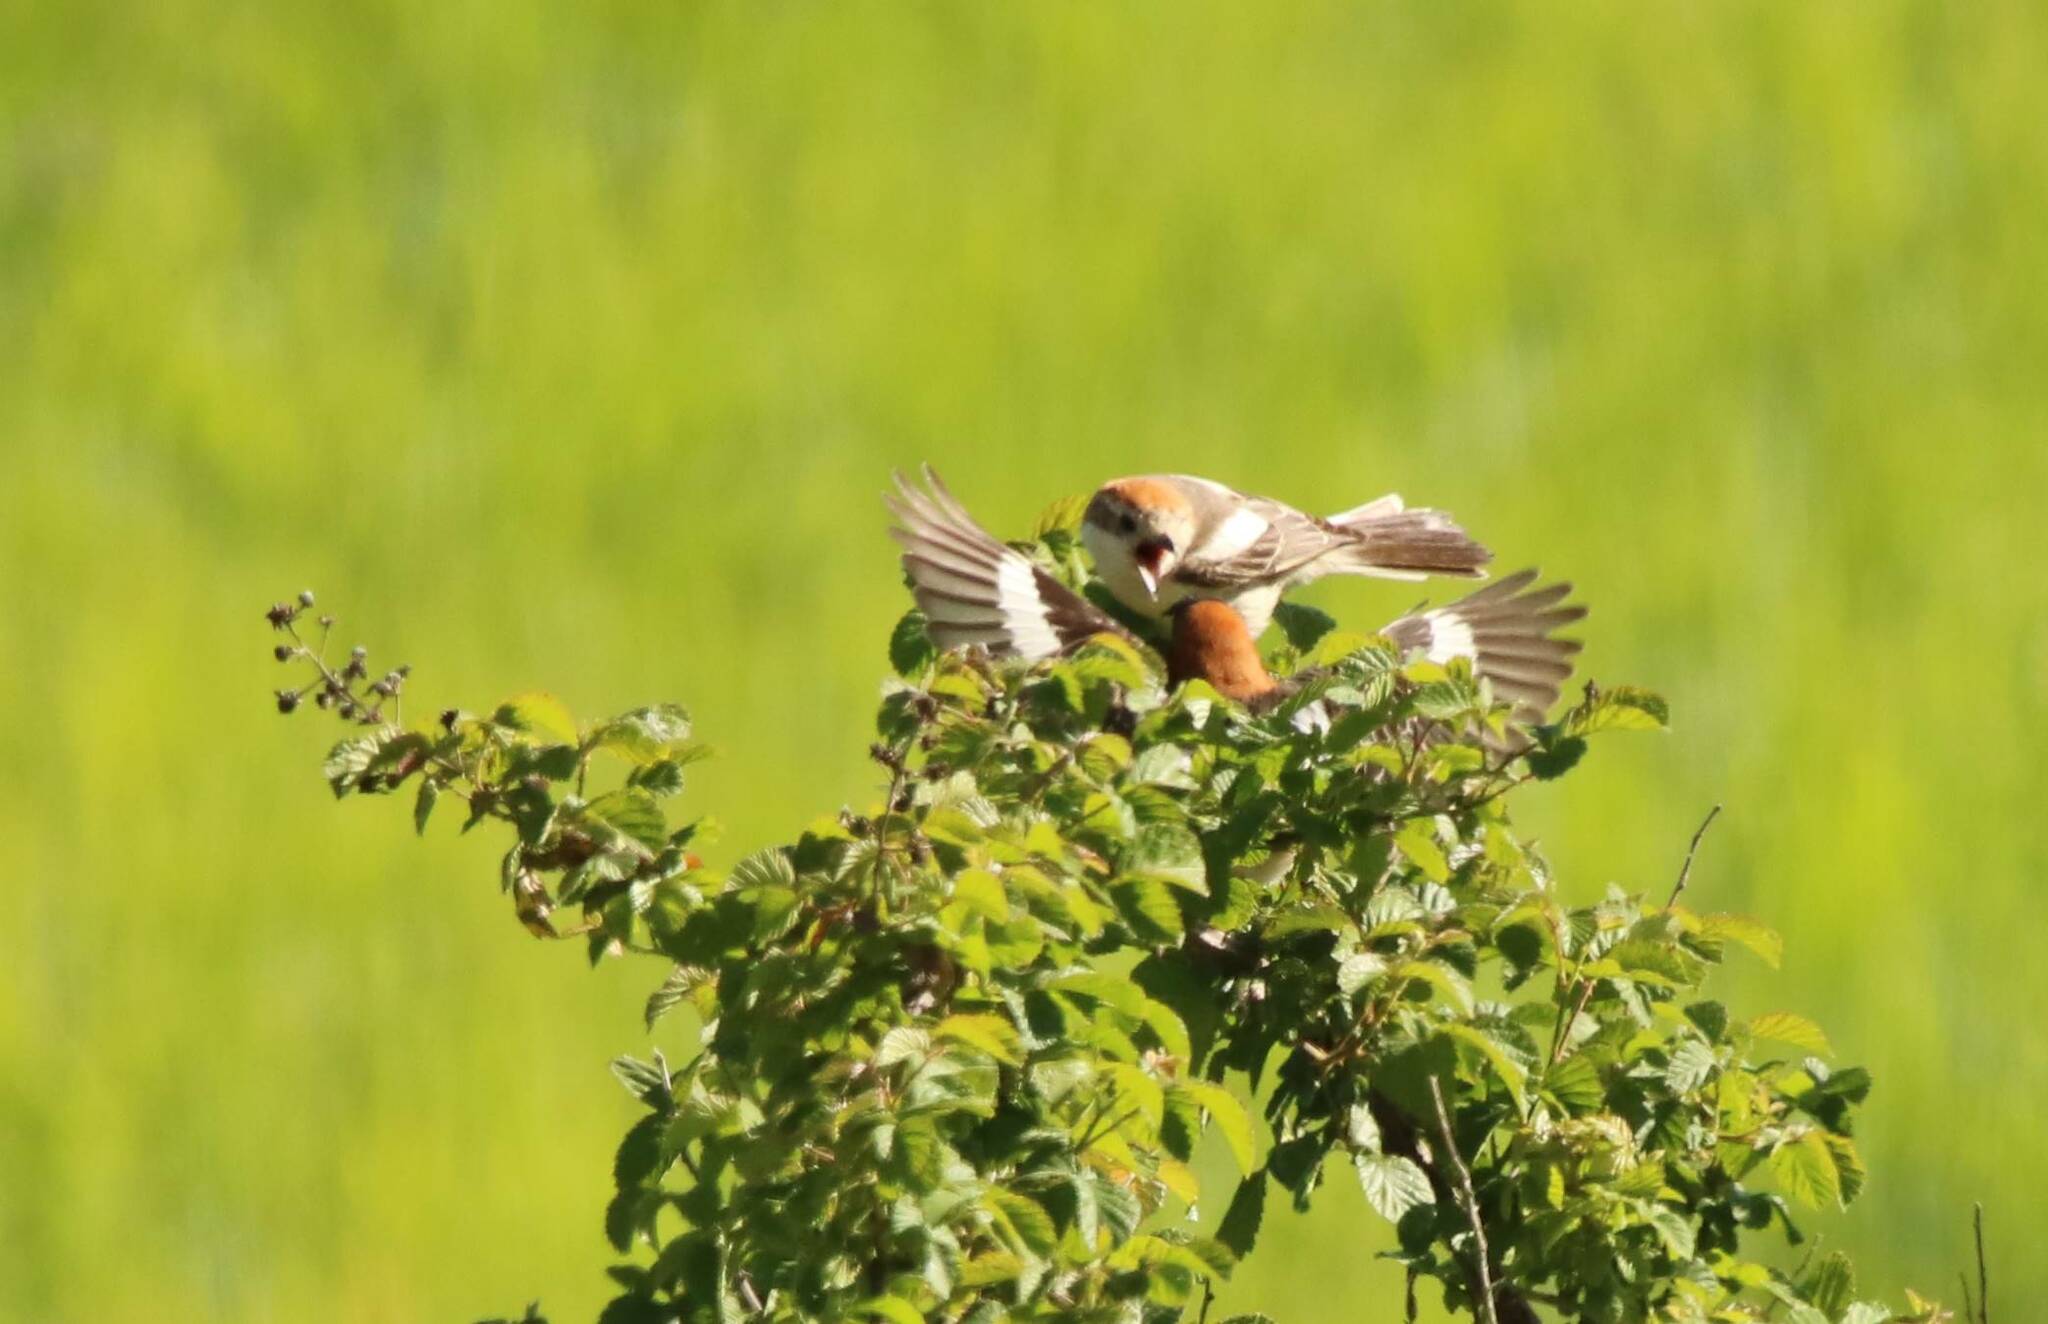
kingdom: Animalia
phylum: Chordata
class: Aves
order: Passeriformes
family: Laniidae
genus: Lanius
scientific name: Lanius senator
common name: Woodchat shrike
